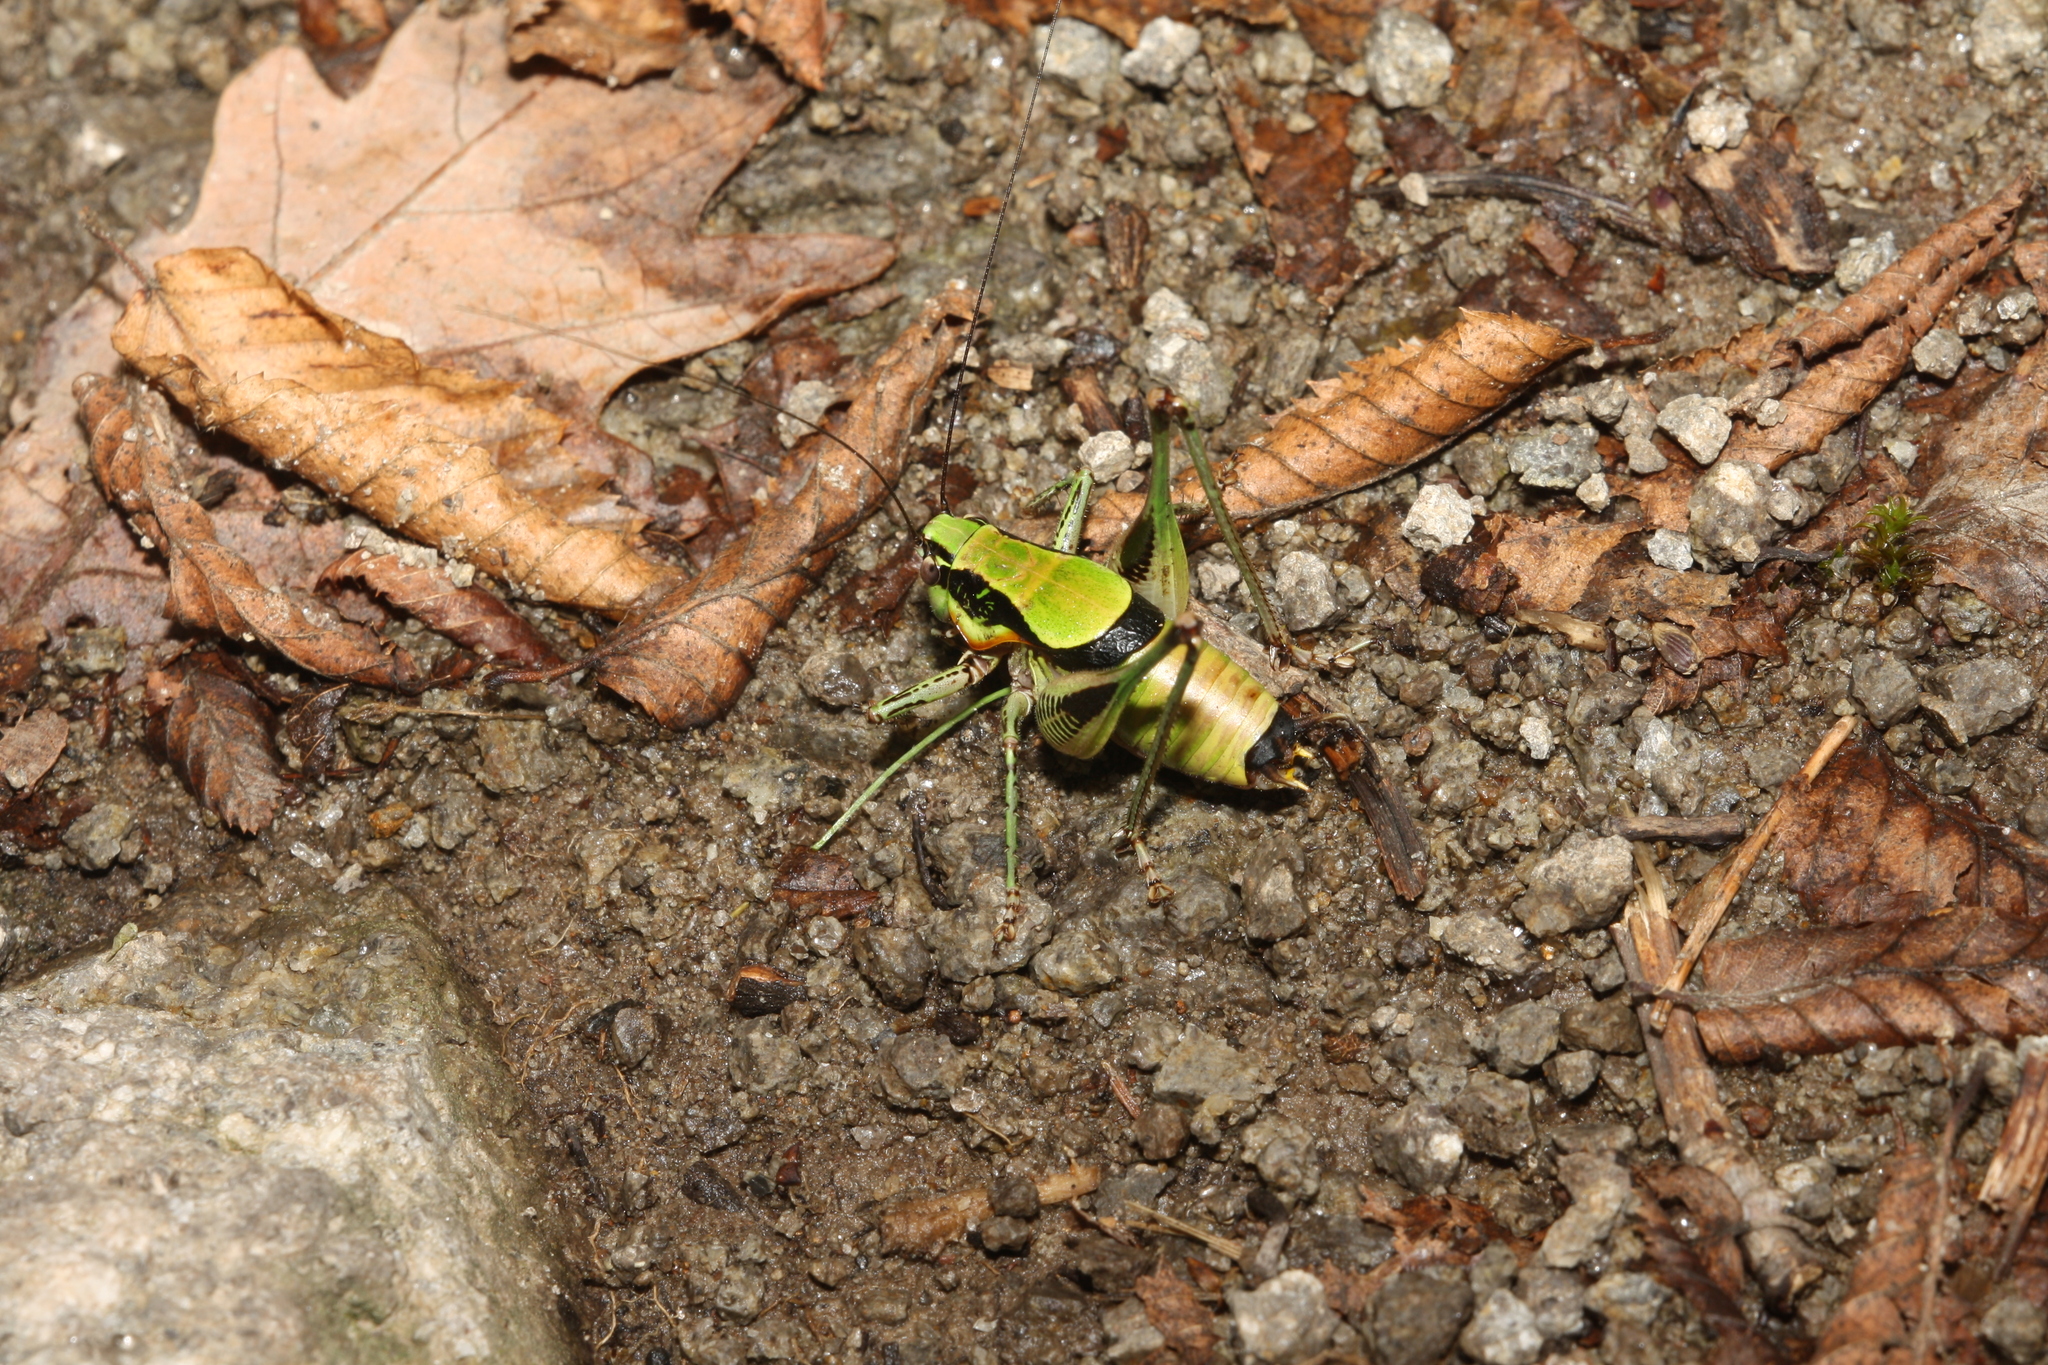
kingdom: Animalia
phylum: Arthropoda
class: Insecta
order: Orthoptera
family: Tettigoniidae
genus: Eupholidoptera
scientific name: Eupholidoptera schmidti
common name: Schmidt's marbled bush-cricket
